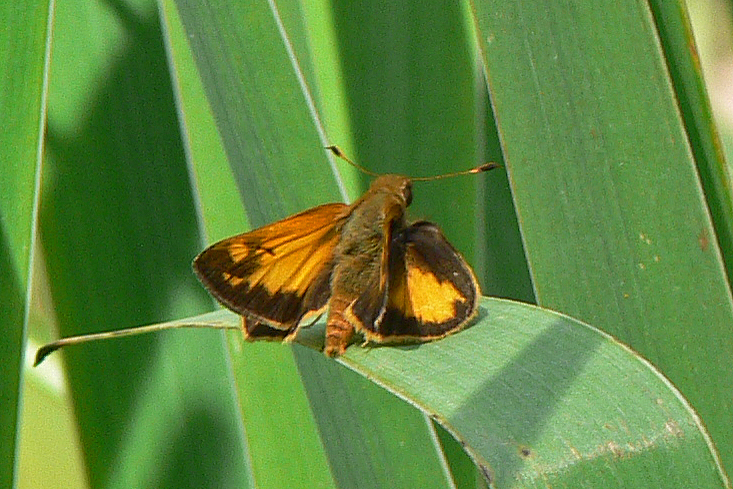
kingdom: Animalia
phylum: Arthropoda
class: Insecta
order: Lepidoptera
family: Hesperiidae
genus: Lon
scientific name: Lon zabulon
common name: Zabulon skipper
